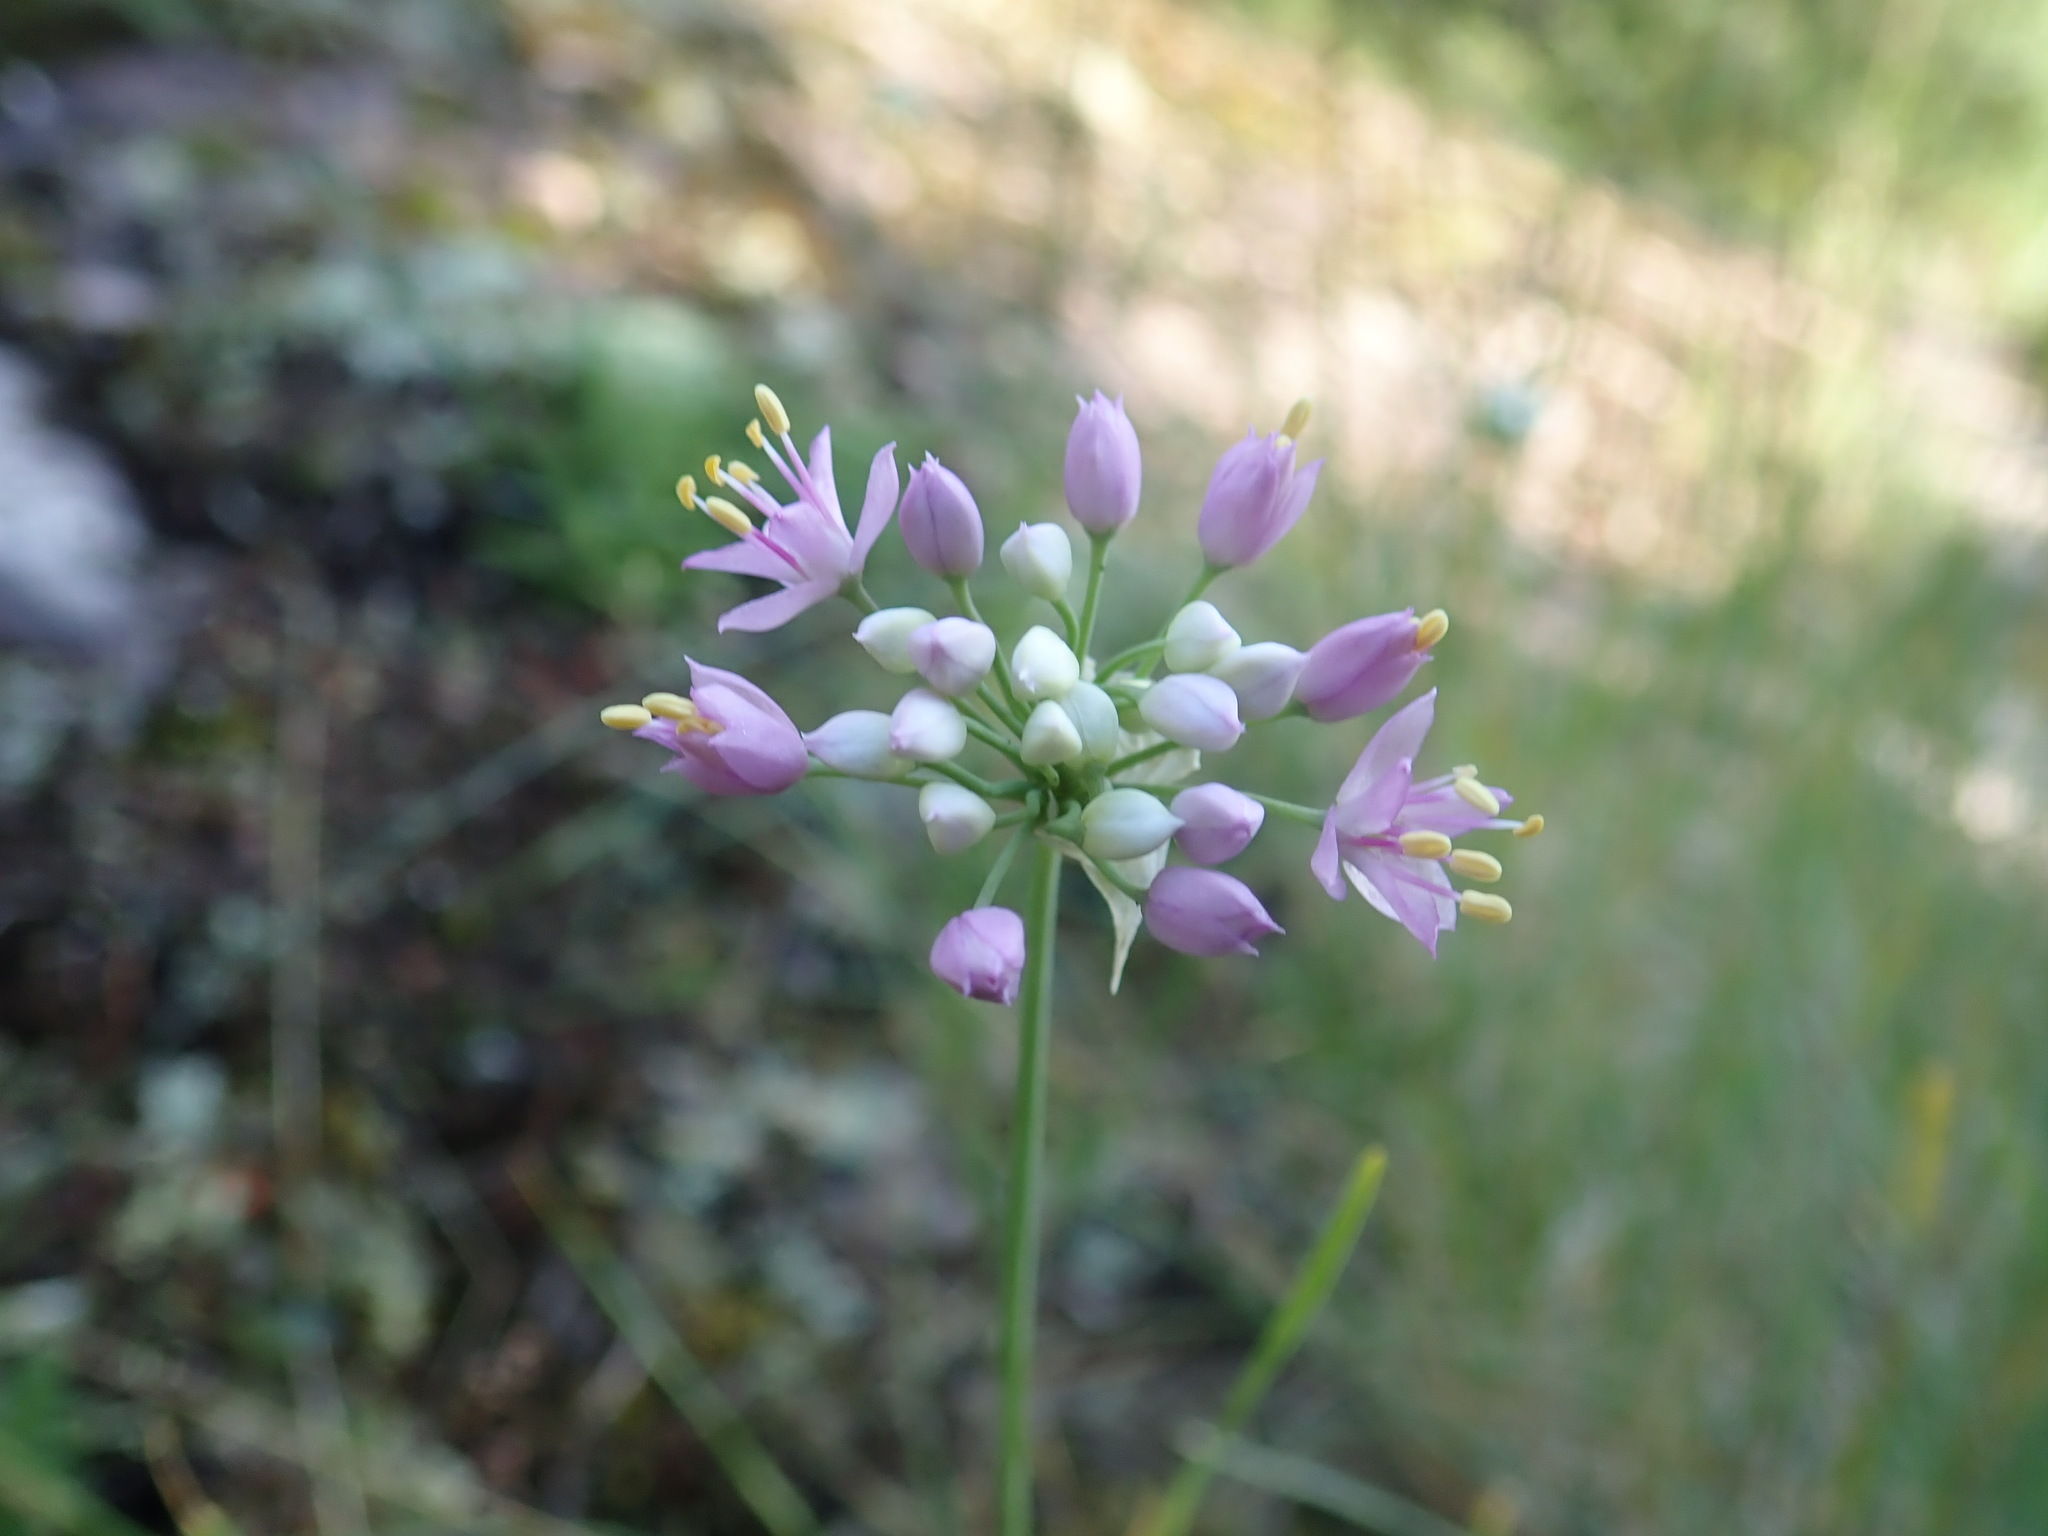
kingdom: Plantae
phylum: Tracheophyta
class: Liliopsida
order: Asparagales
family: Amaryllidaceae
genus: Allium
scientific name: Allium stellatum
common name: Autumn onion
